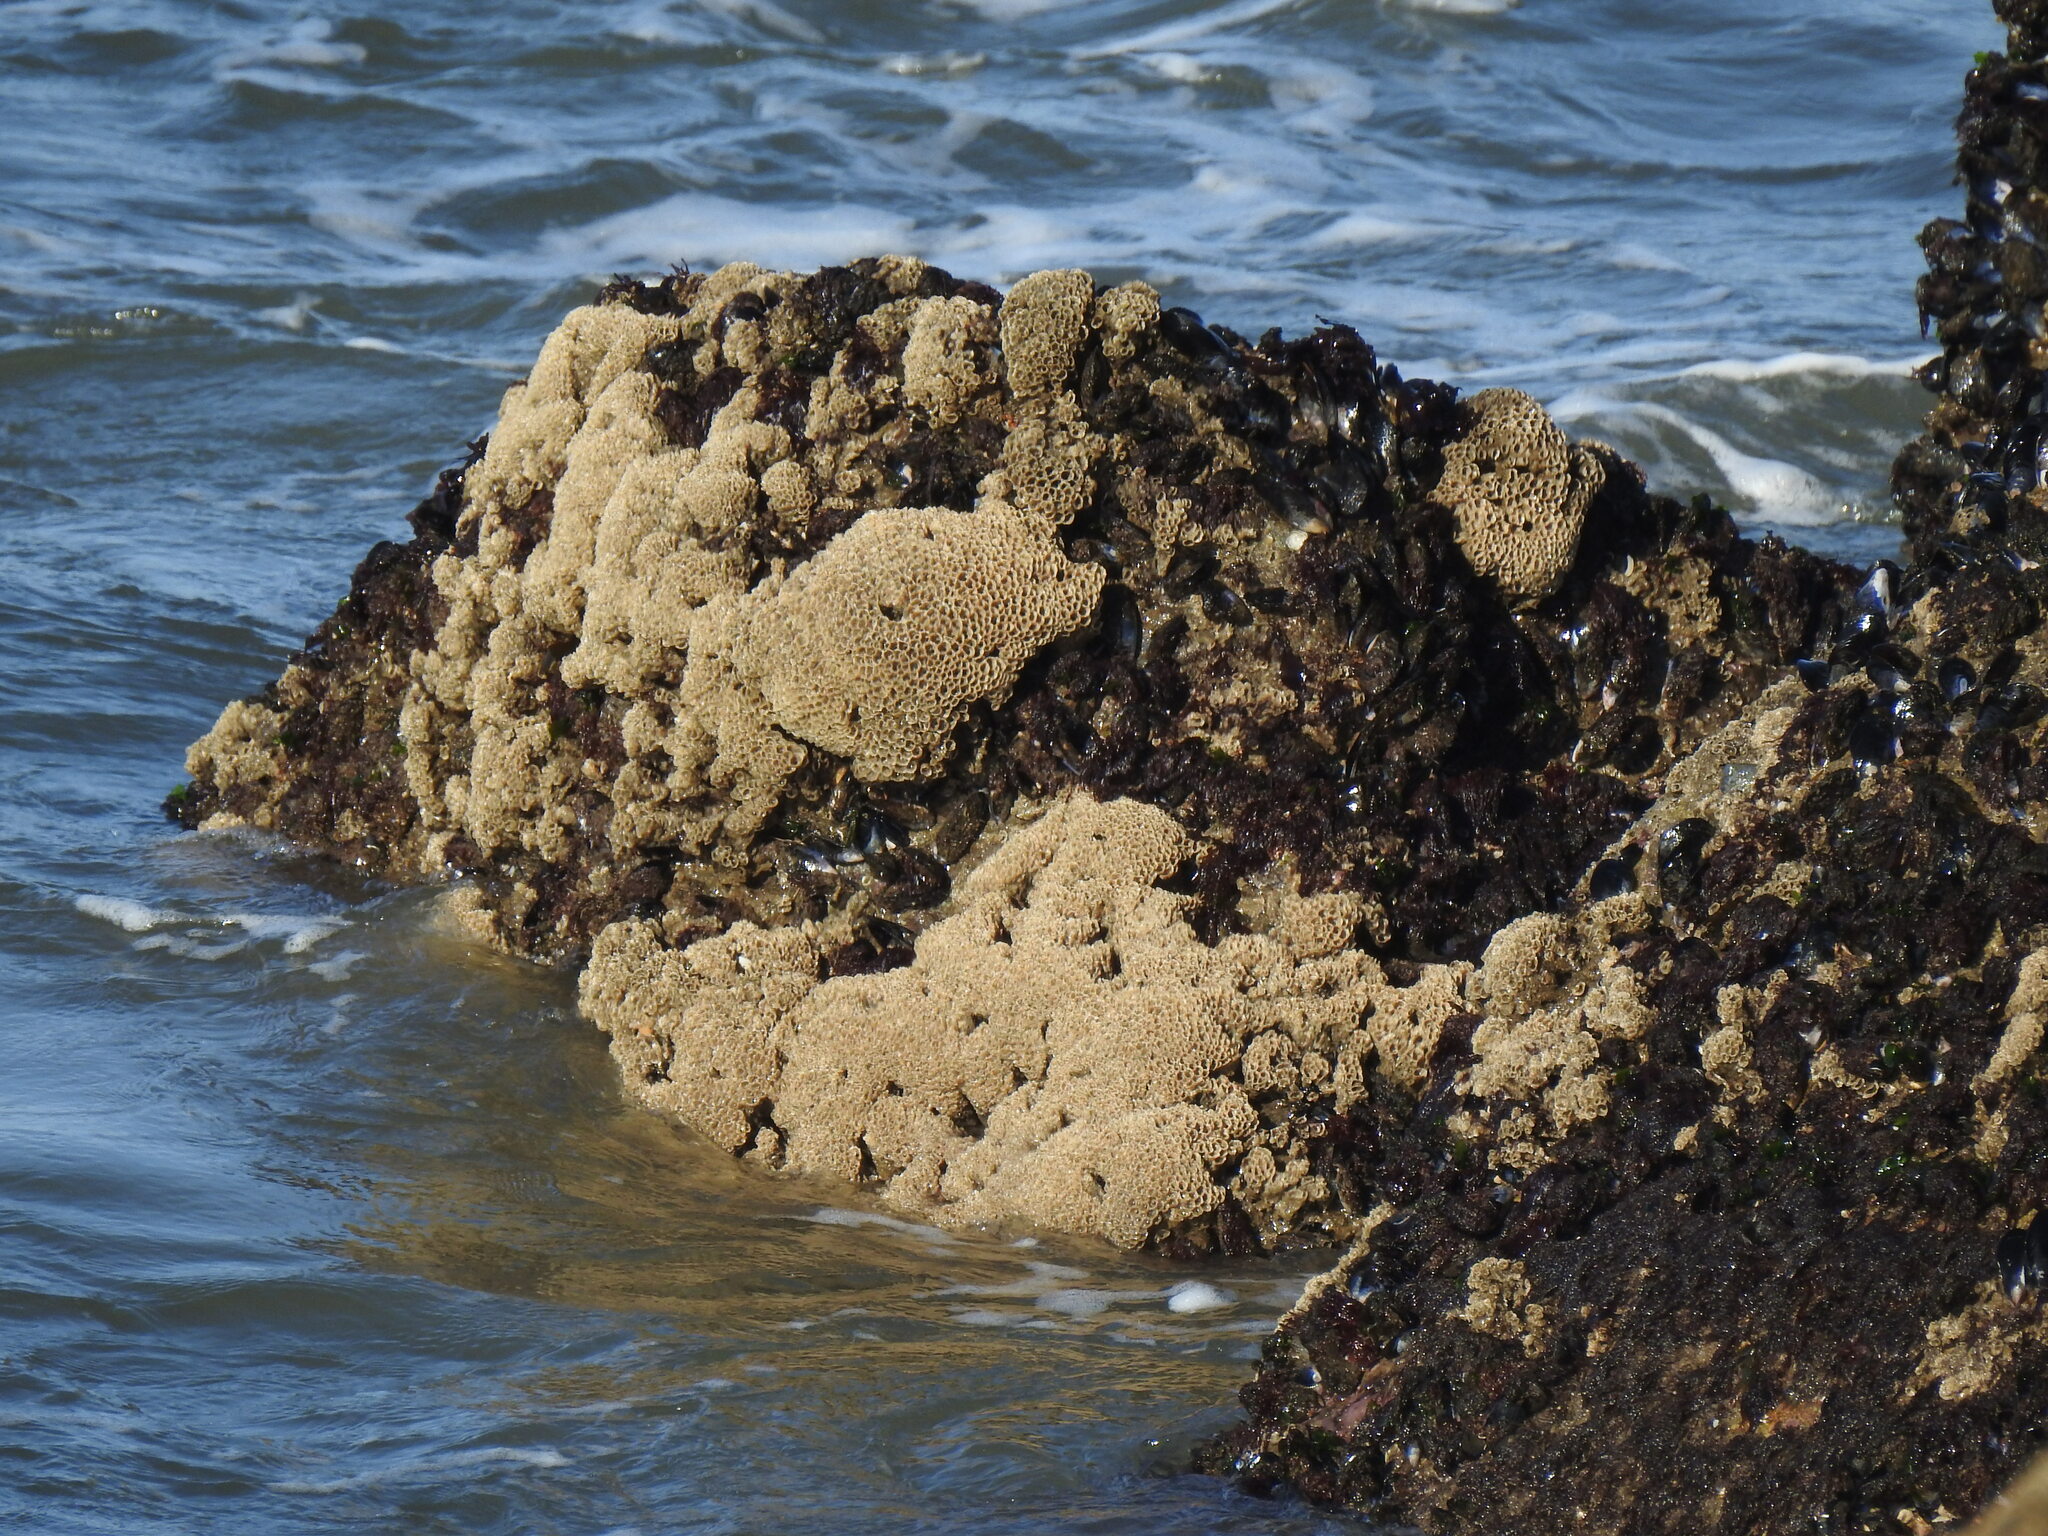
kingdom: Animalia
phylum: Annelida
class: Polychaeta
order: Sabellida
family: Sabellariidae
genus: Sabellaria
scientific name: Sabellaria alveolata
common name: Honeycomb worm
